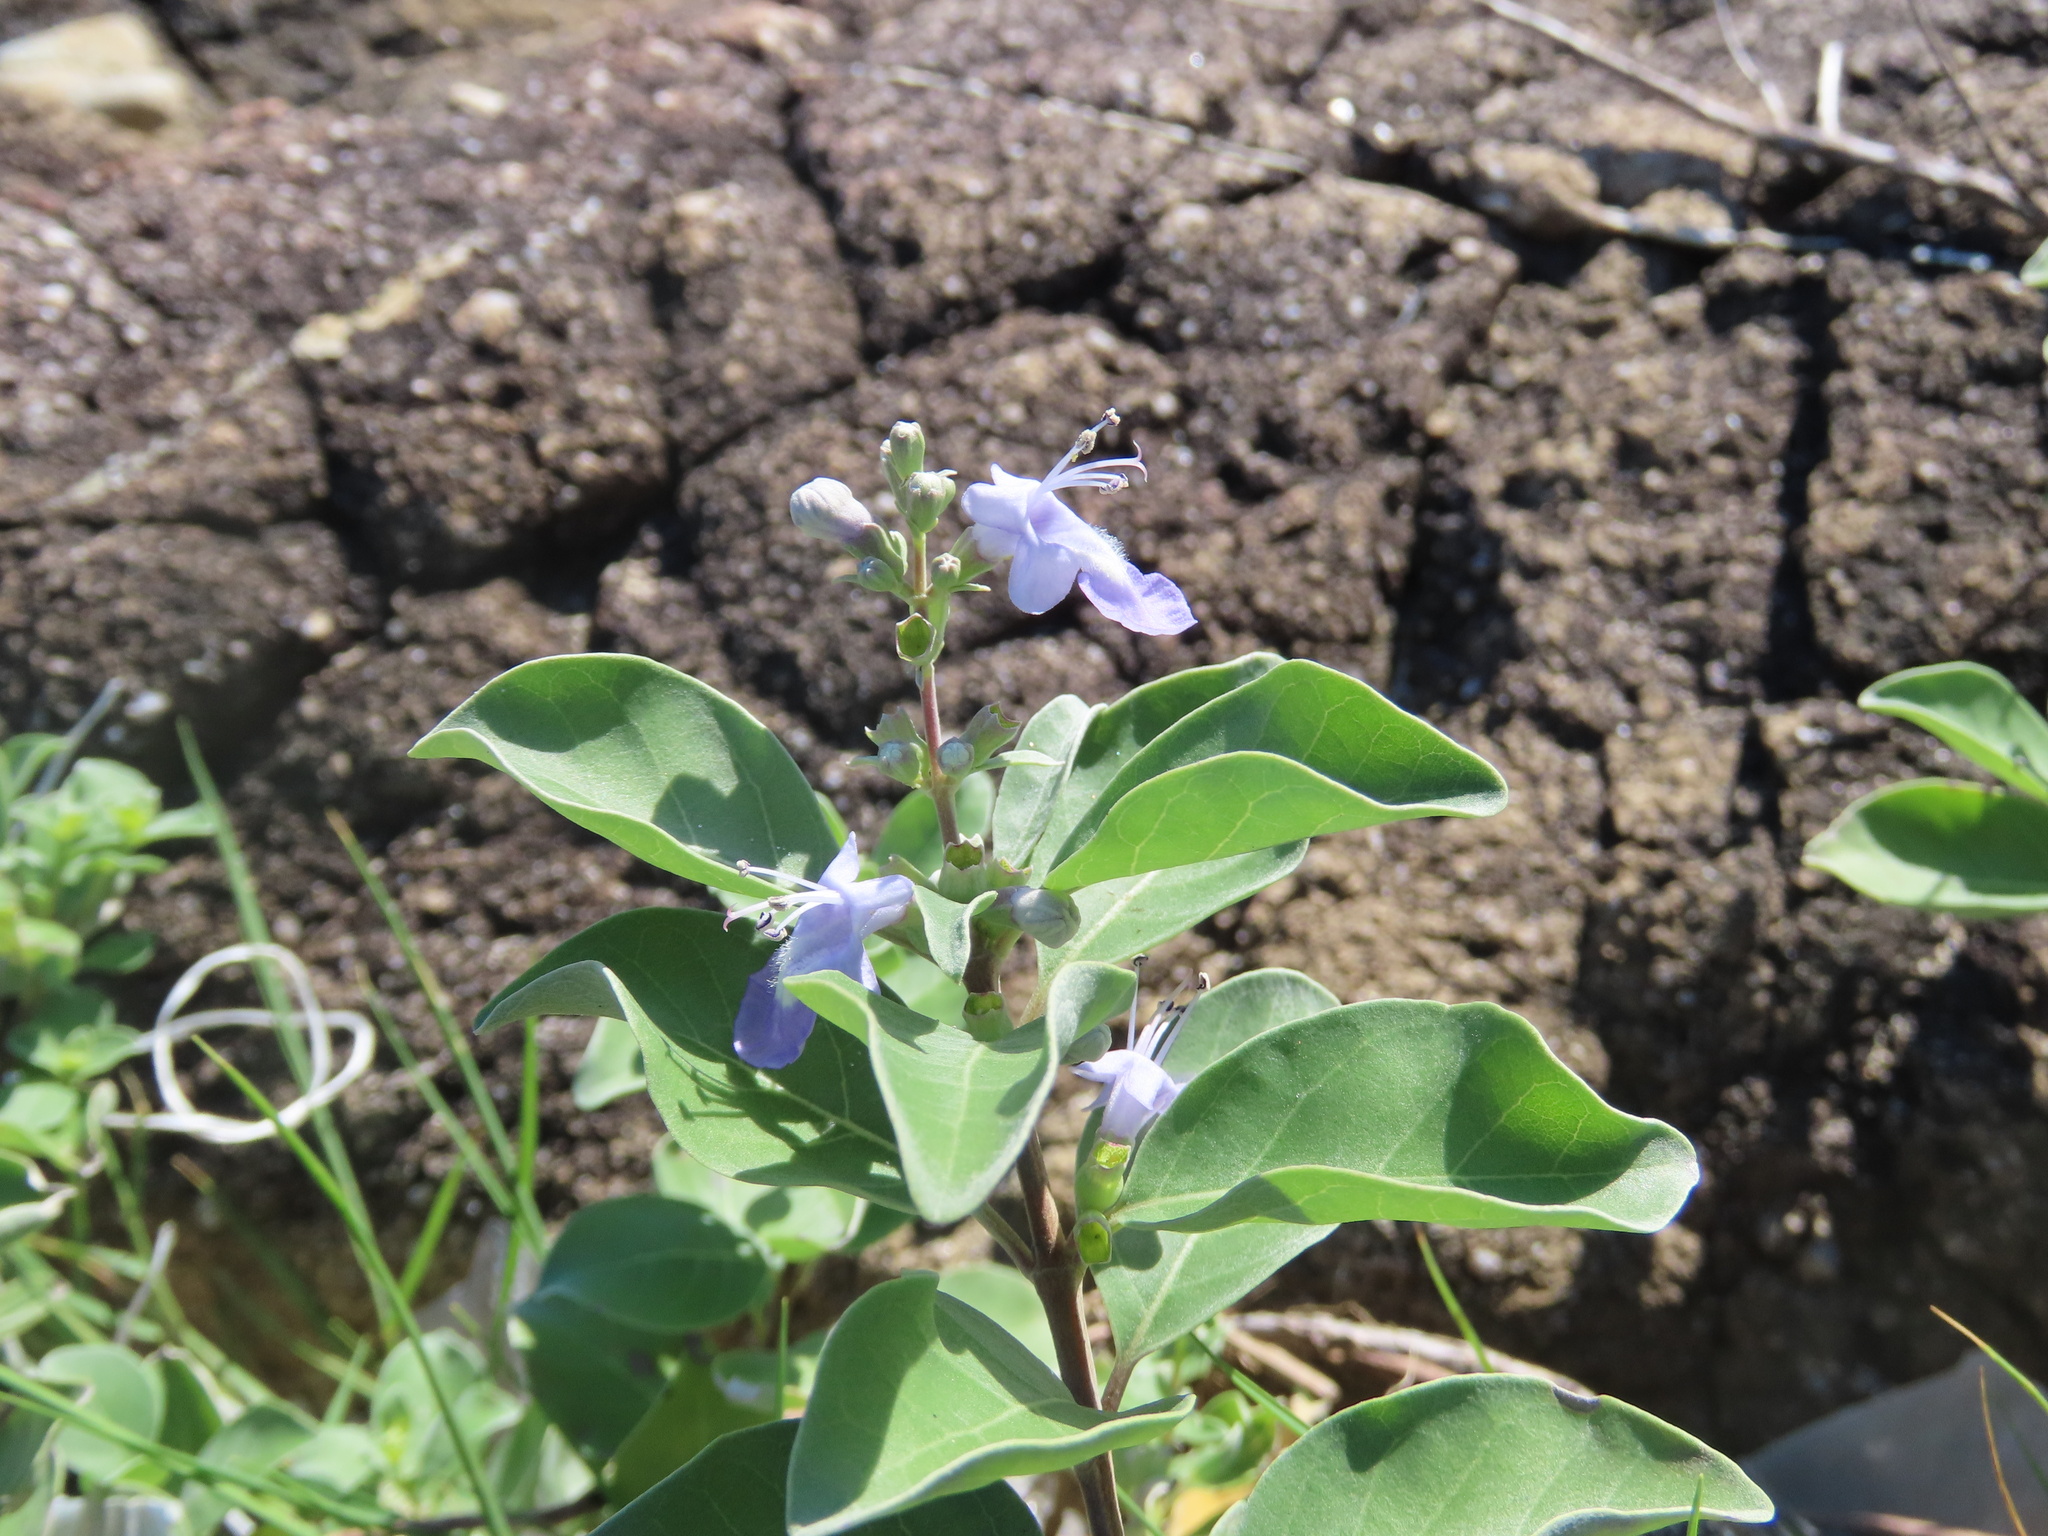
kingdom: Plantae
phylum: Tracheophyta
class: Magnoliopsida
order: Lamiales
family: Lamiaceae
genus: Vitex
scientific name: Vitex rotundifolia
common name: Beach vitex
